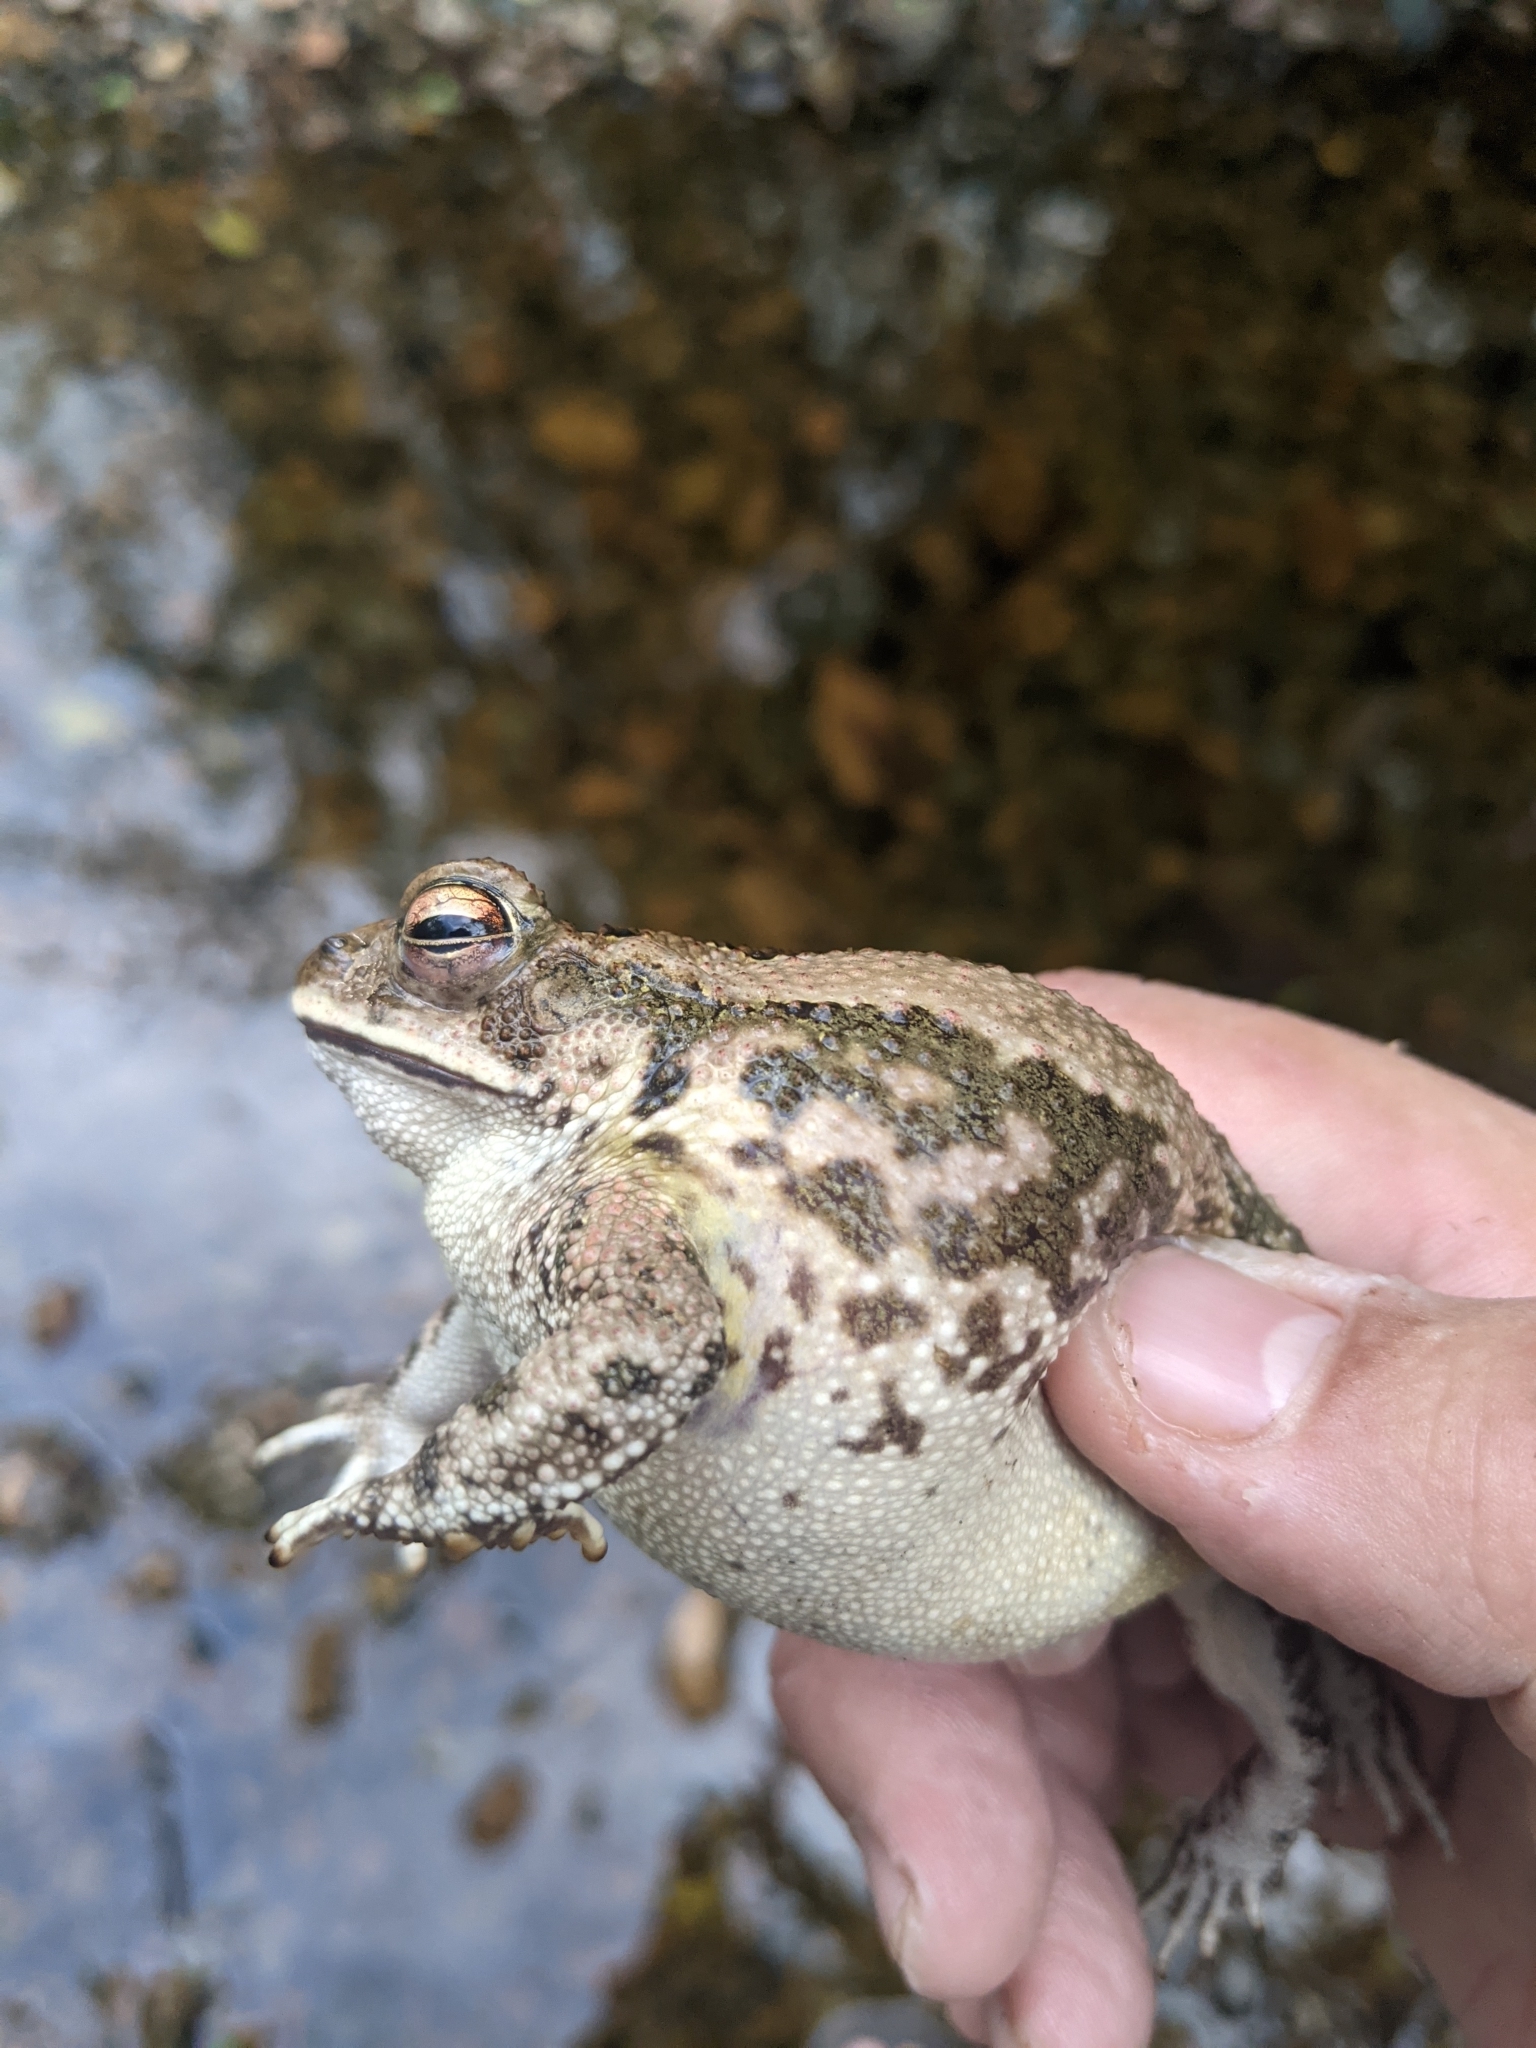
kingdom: Animalia
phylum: Chordata
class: Amphibia
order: Anura
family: Bufonidae
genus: Incilius
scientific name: Incilius mazatlanensis
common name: Sinaloa toad
